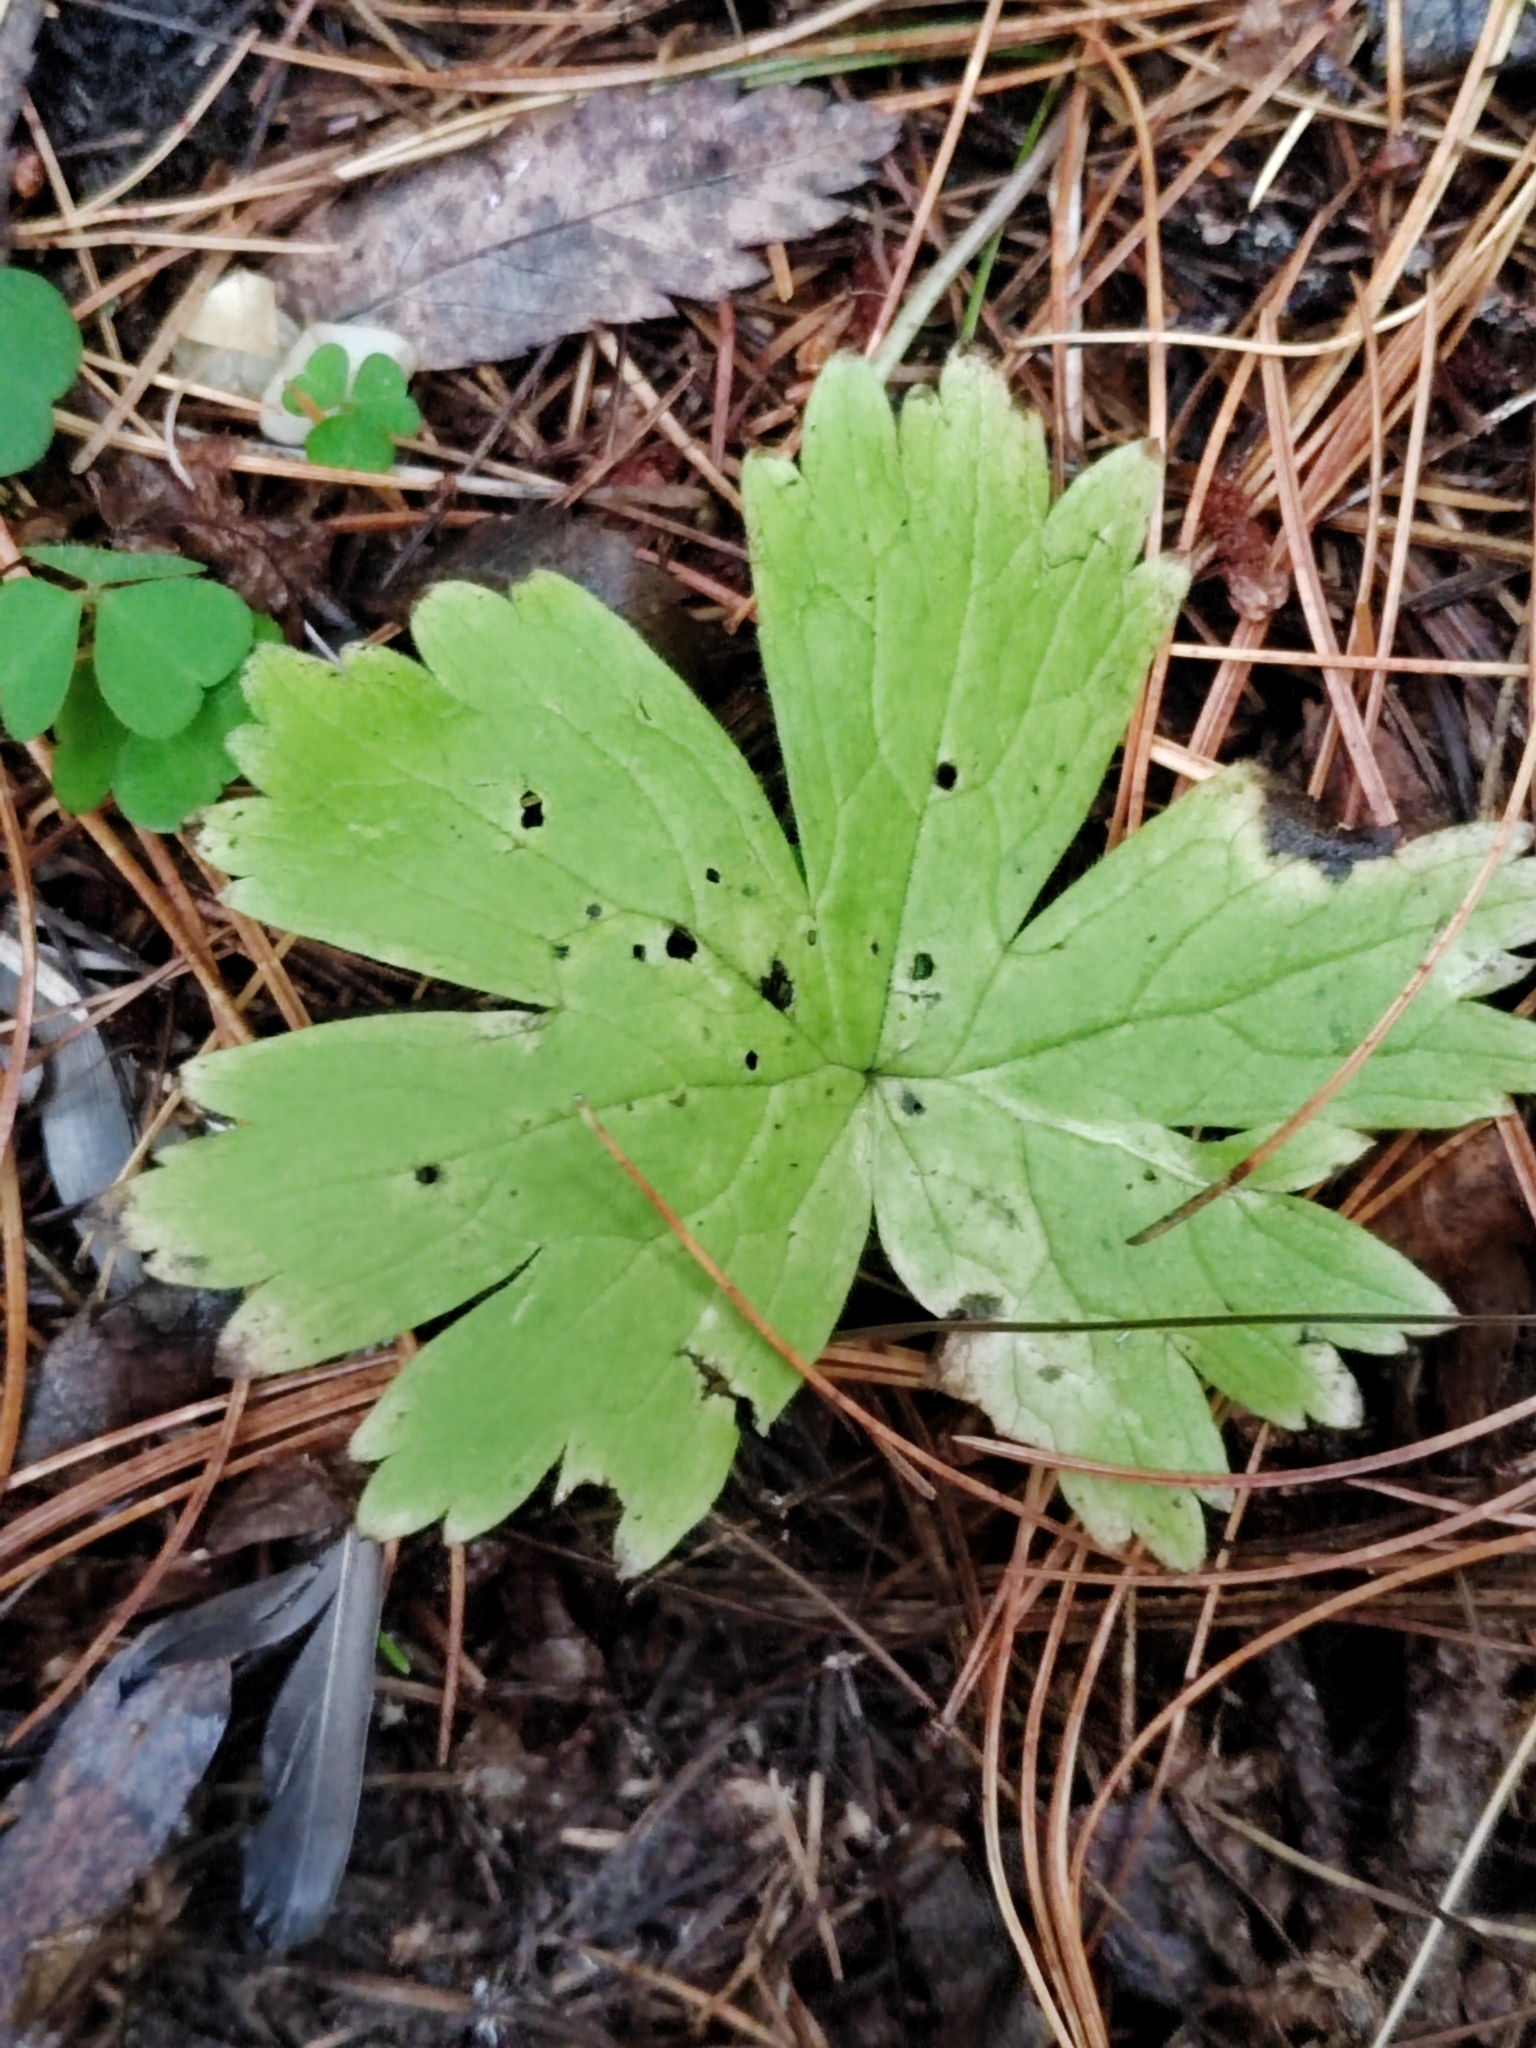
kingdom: Plantae
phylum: Tracheophyta
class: Magnoliopsida
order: Ranunculales
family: Ranunculaceae
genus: Aconitum
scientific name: Aconitum septentrionale
